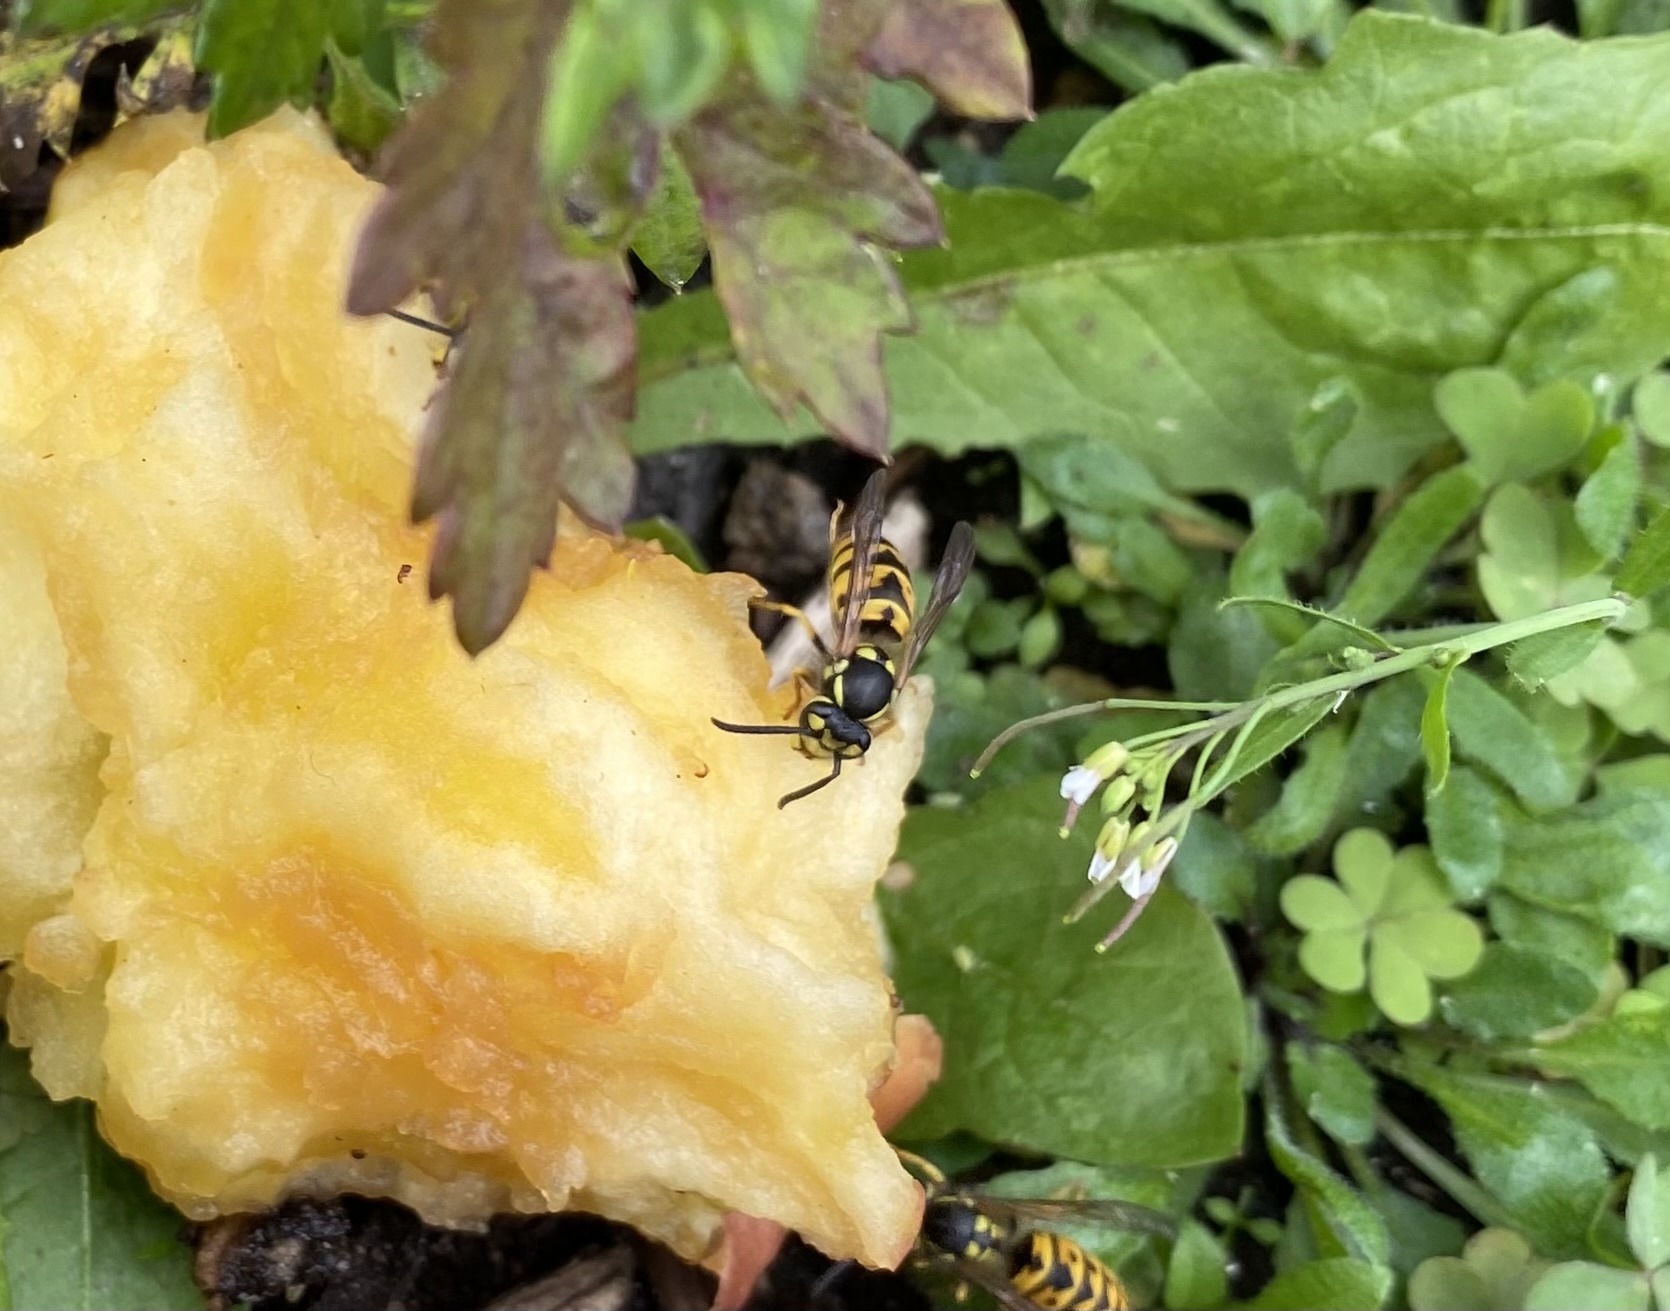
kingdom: Animalia
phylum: Arthropoda
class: Insecta
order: Hymenoptera
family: Vespidae
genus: Vespula
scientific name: Vespula germanica
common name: German wasp
